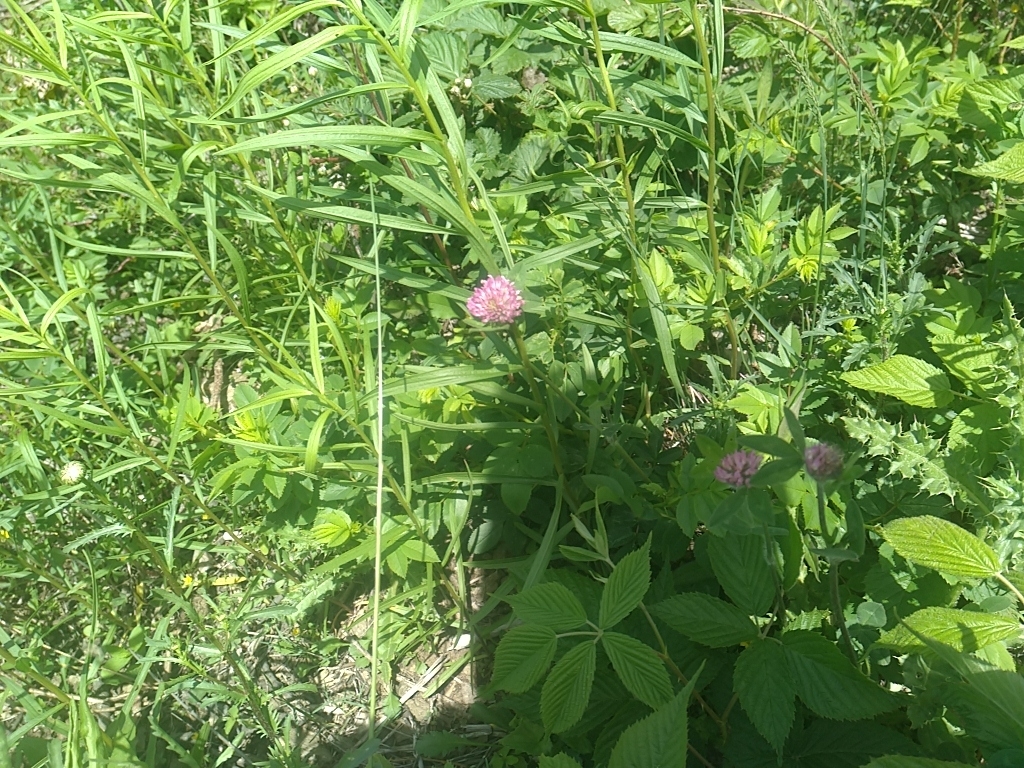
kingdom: Plantae
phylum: Tracheophyta
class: Magnoliopsida
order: Fabales
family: Fabaceae
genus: Trifolium
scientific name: Trifolium pratense
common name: Red clover
